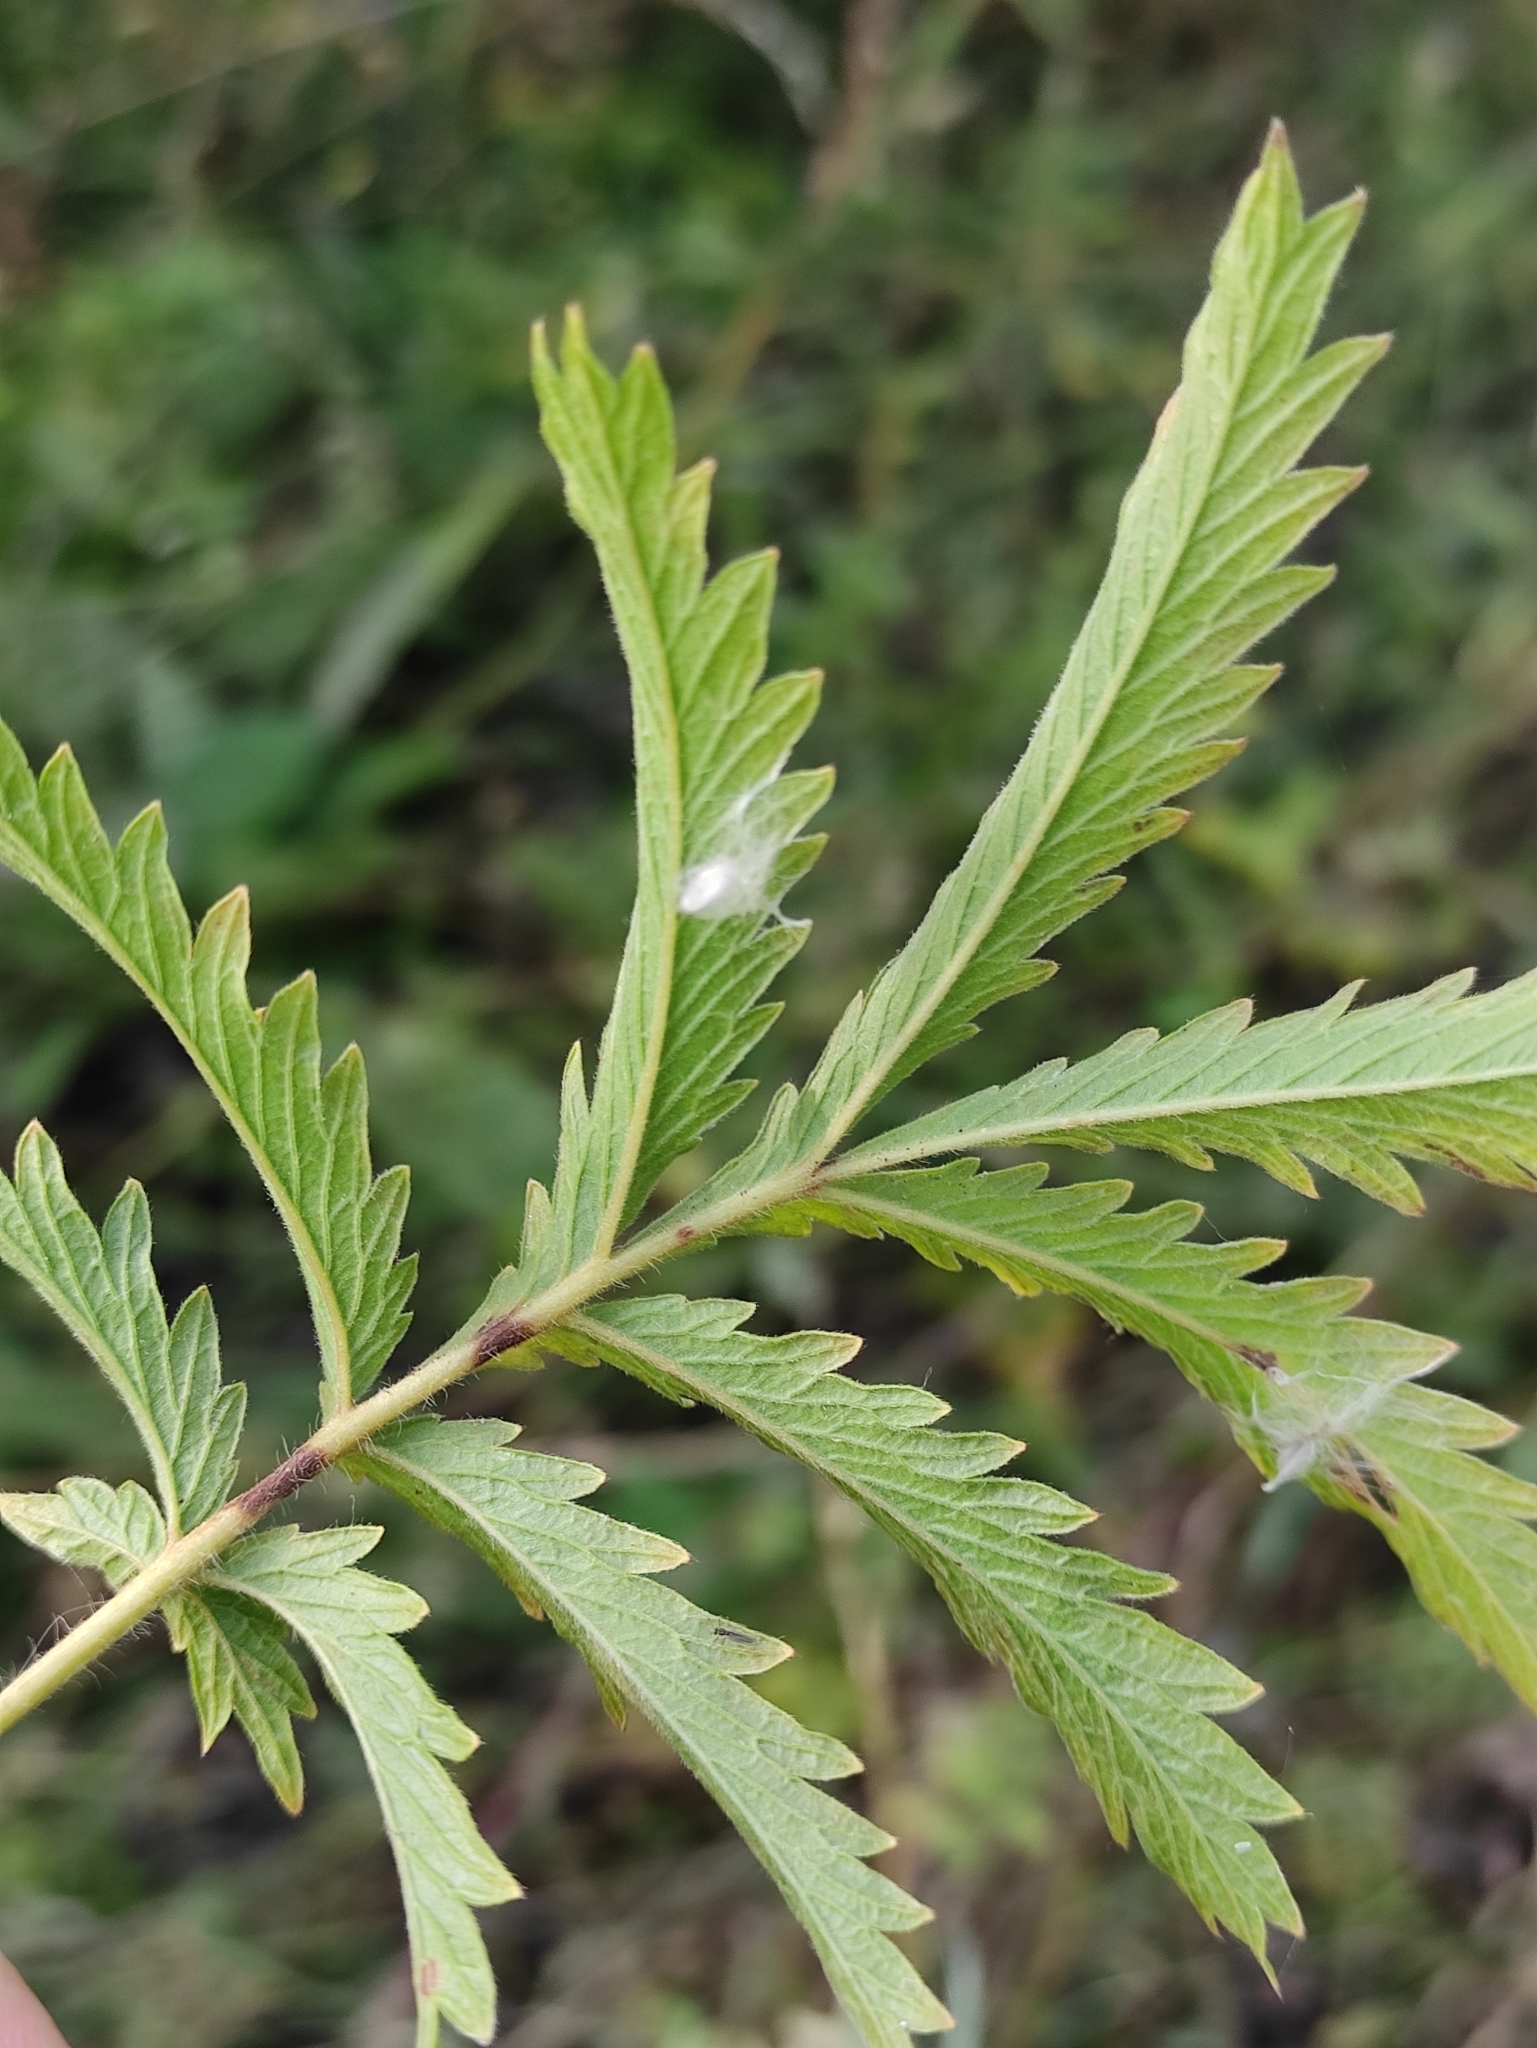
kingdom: Plantae
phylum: Tracheophyta
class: Magnoliopsida
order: Rosales
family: Rosaceae
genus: Potentilla
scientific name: Potentilla longifolia
